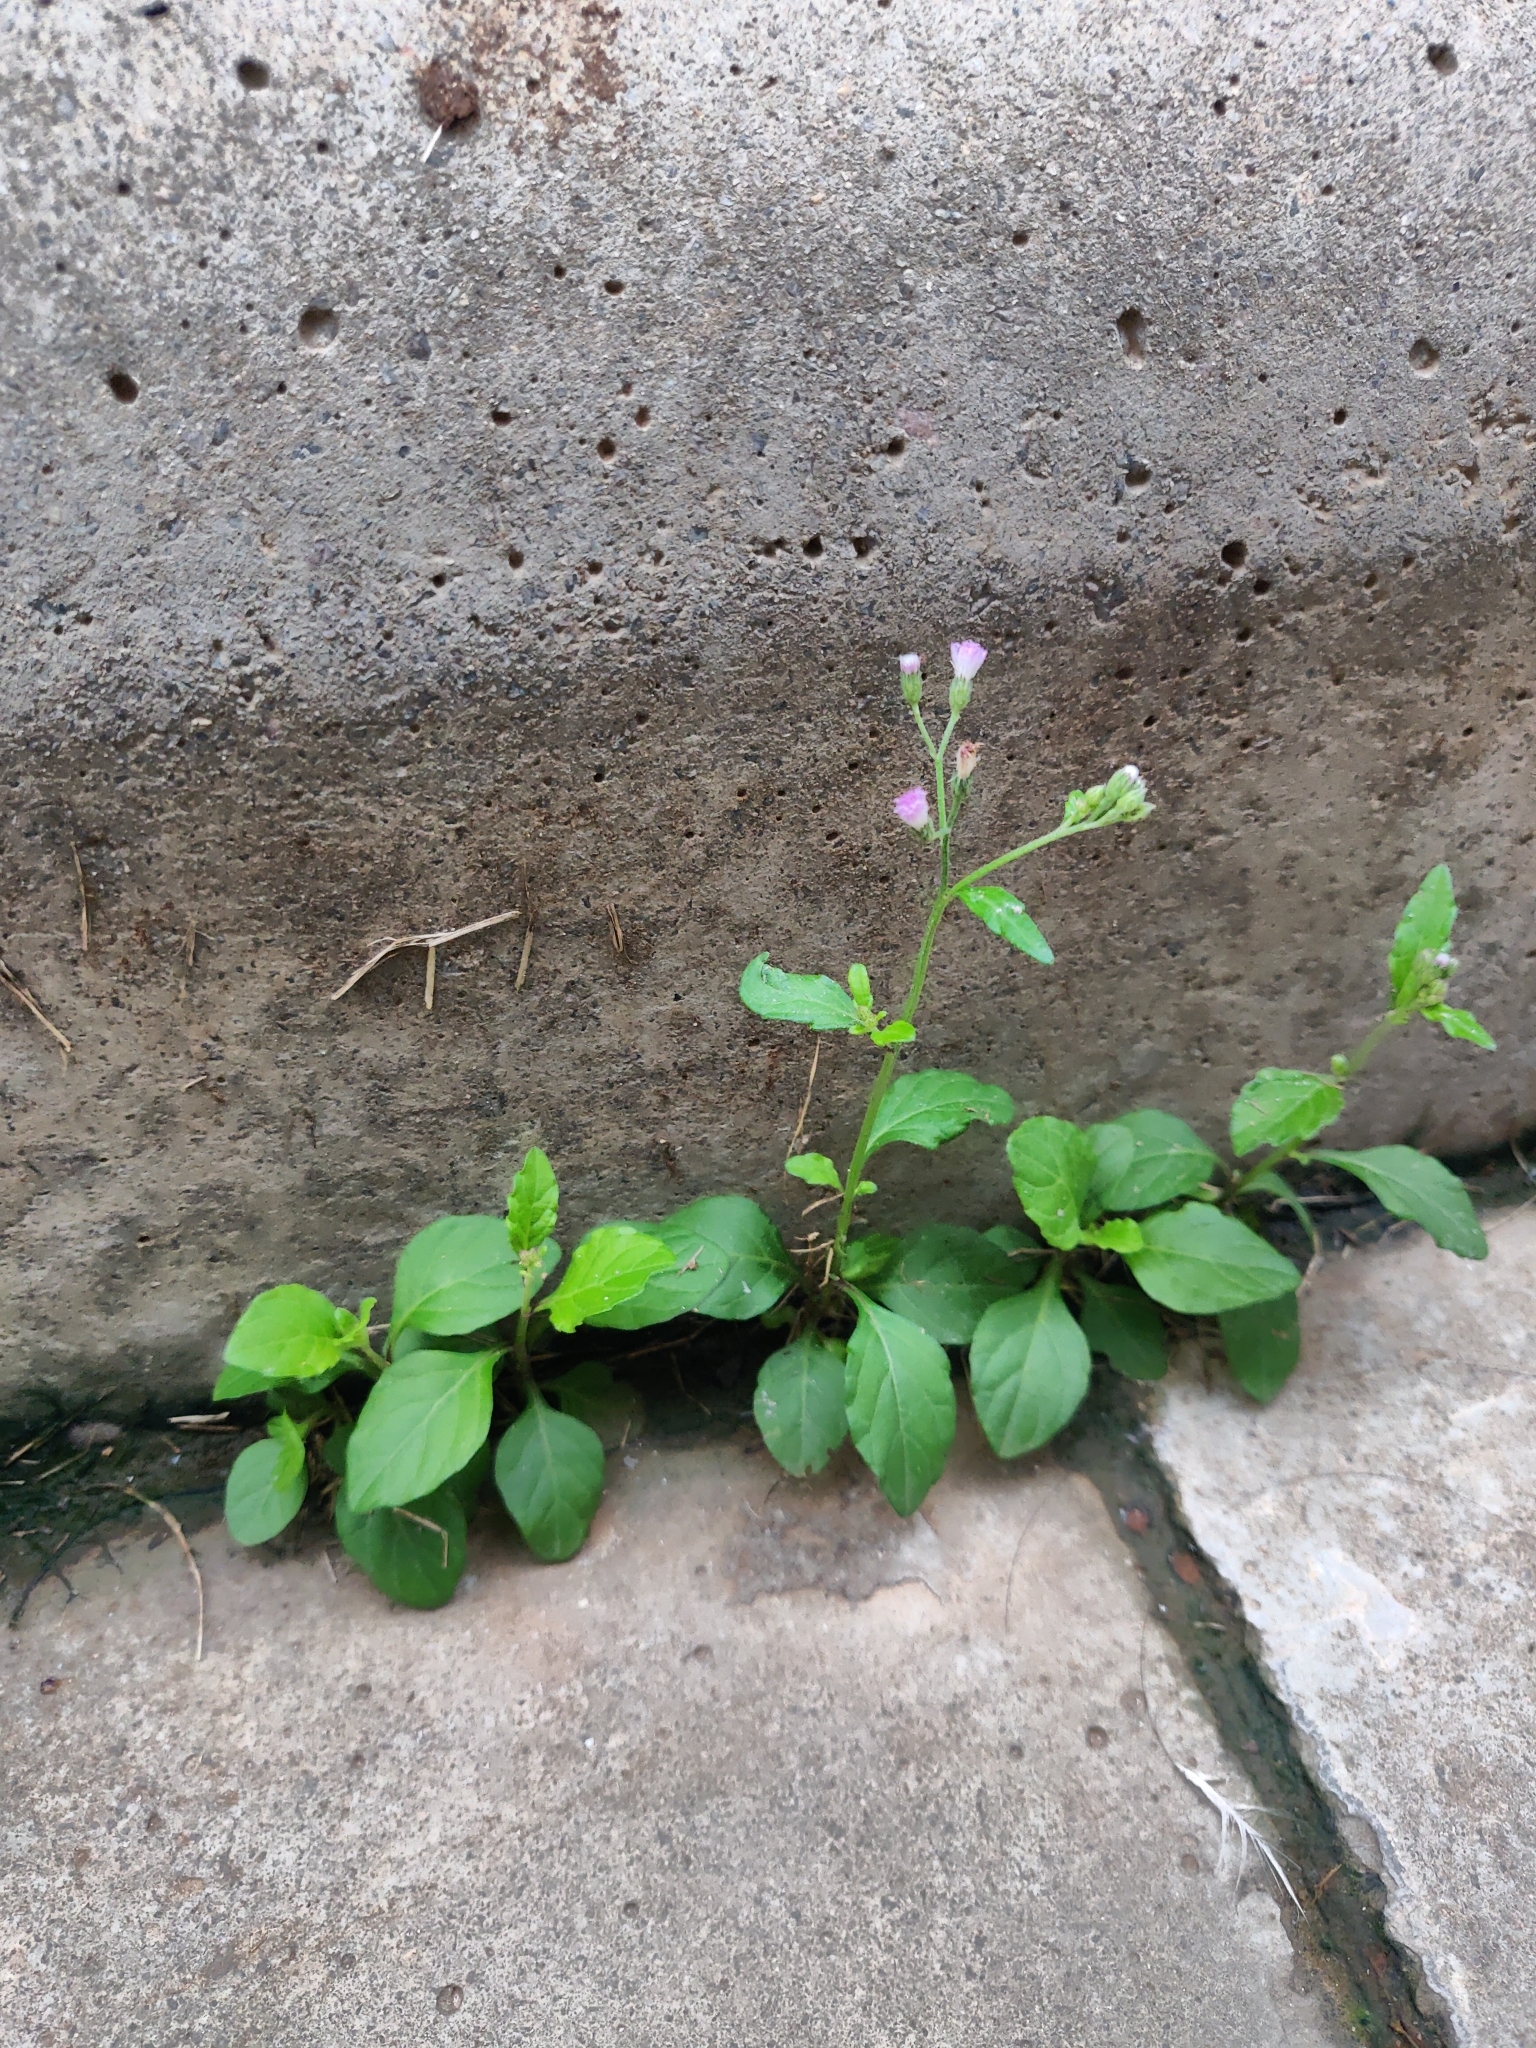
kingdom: Plantae
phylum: Tracheophyta
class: Magnoliopsida
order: Asterales
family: Asteraceae
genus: Cyanthillium
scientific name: Cyanthillium cinereum
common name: Little ironweed
